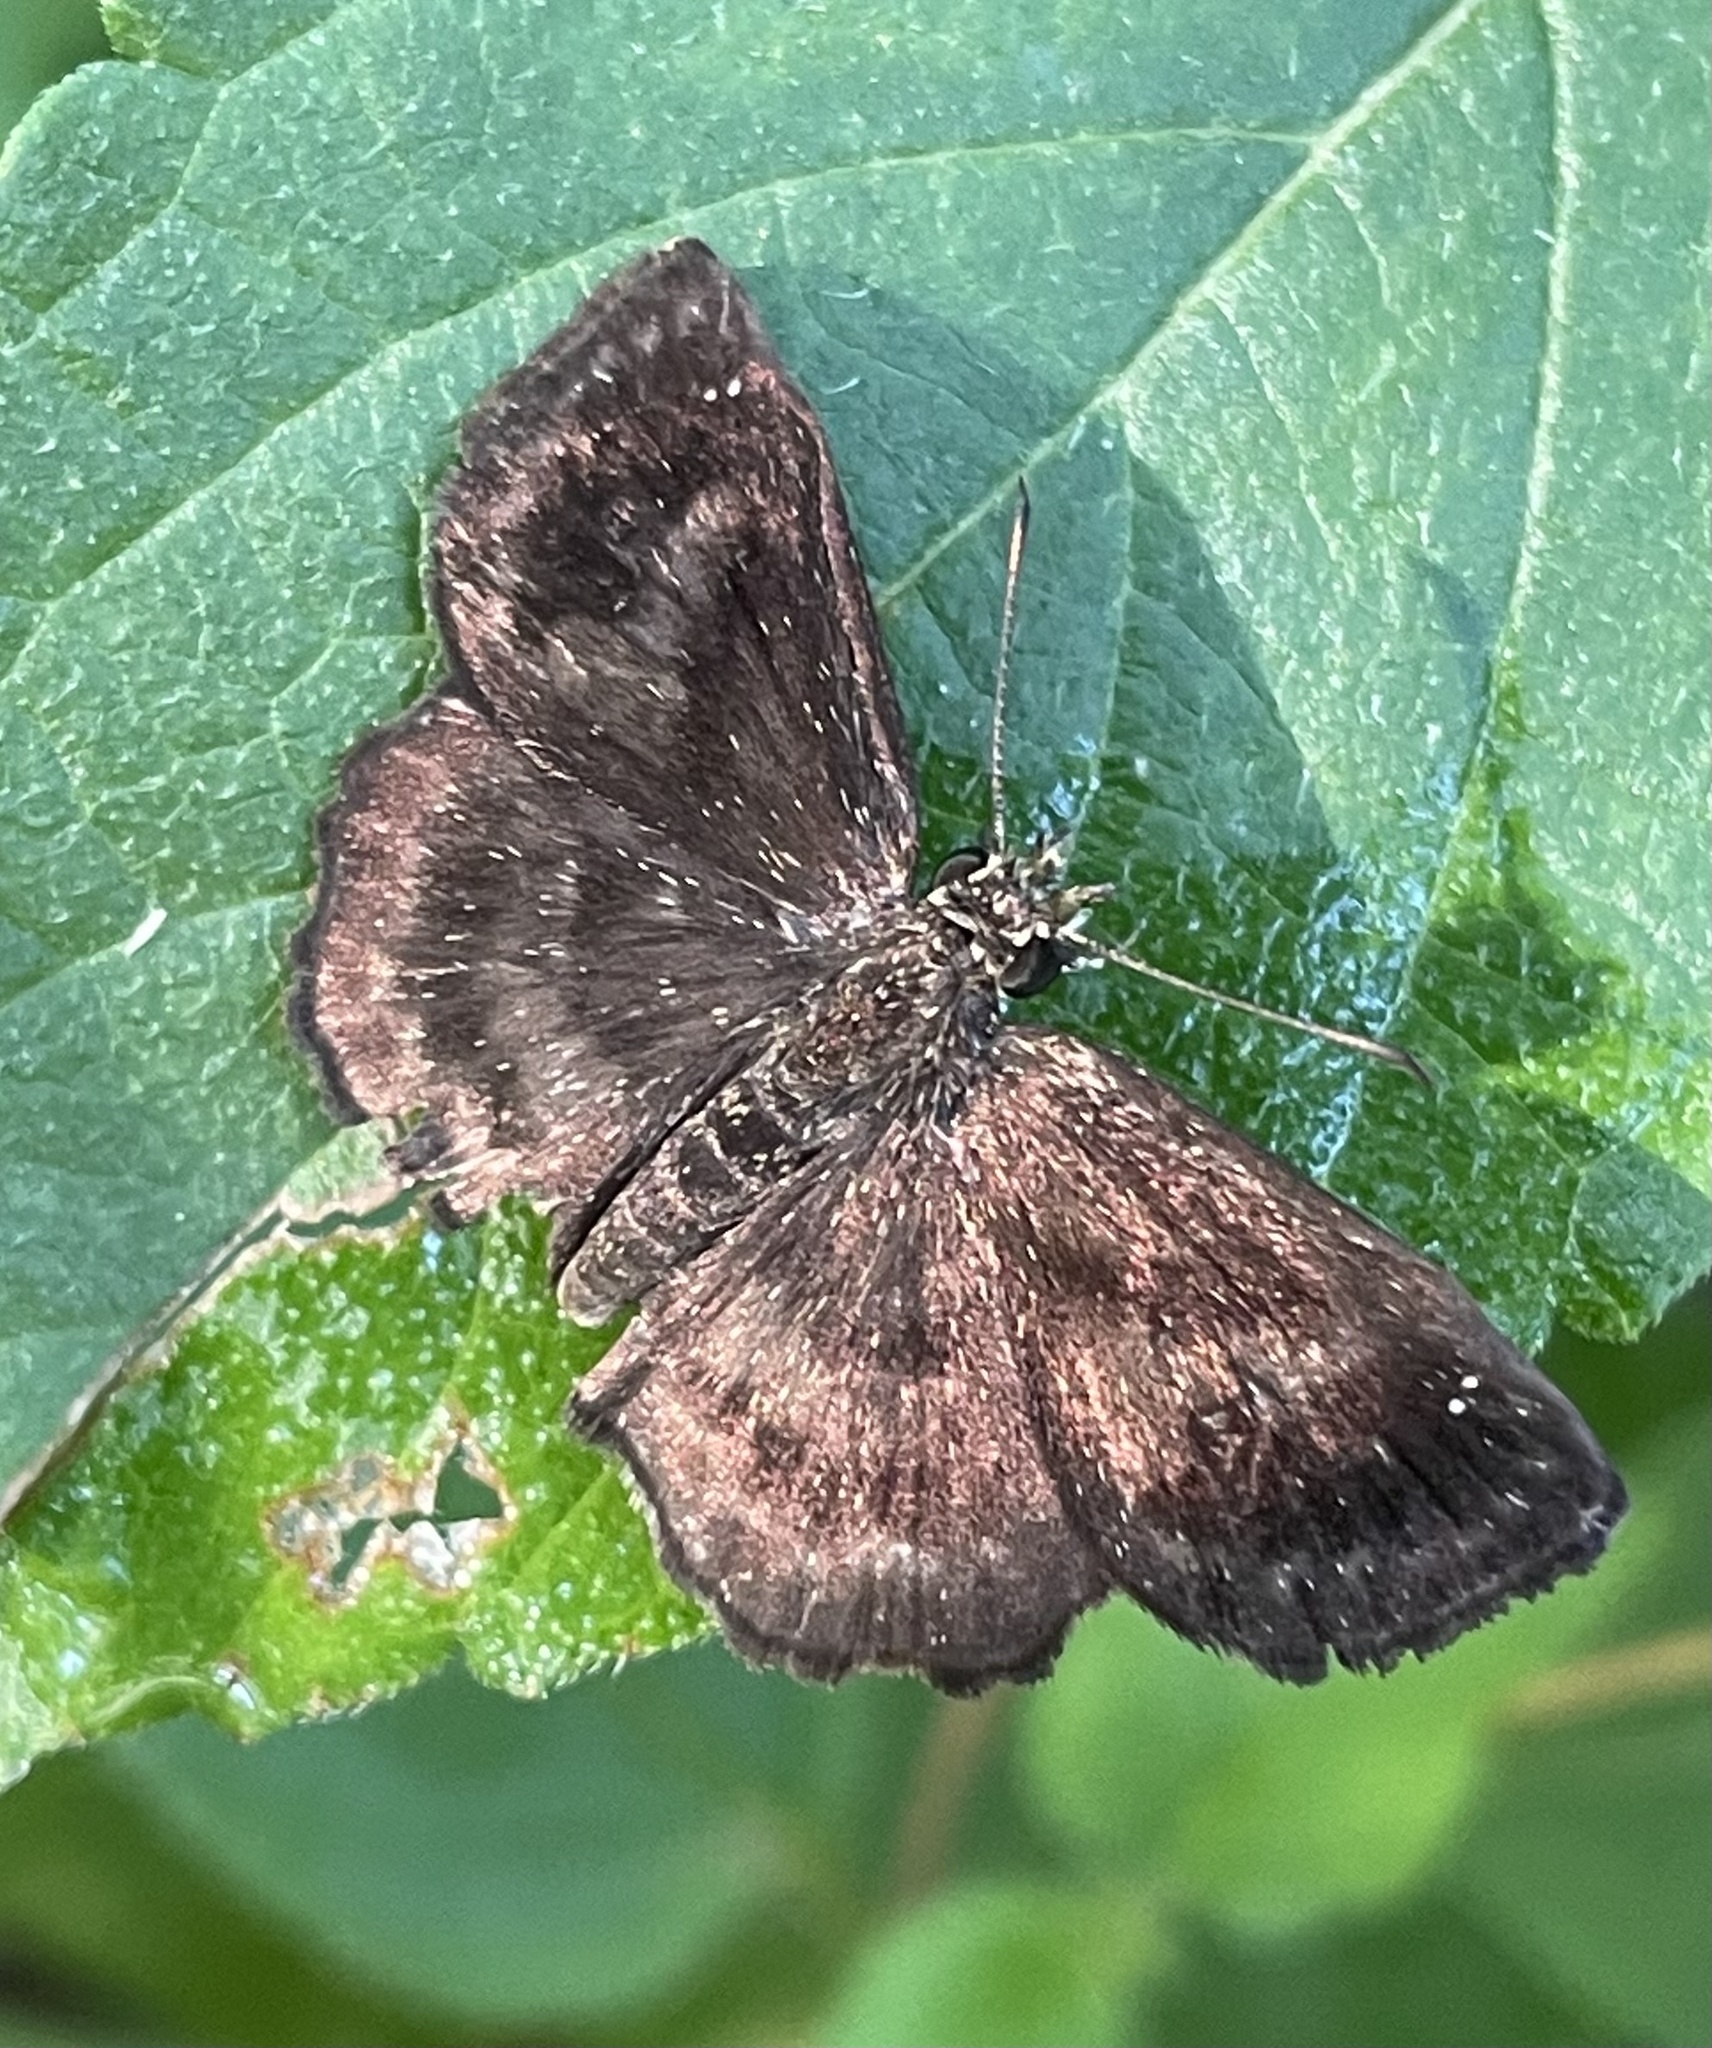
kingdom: Animalia
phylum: Arthropoda
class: Insecta
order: Lepidoptera
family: Hesperiidae
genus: Staphylus
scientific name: Staphylus mazans
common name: Mazans scallopwing
